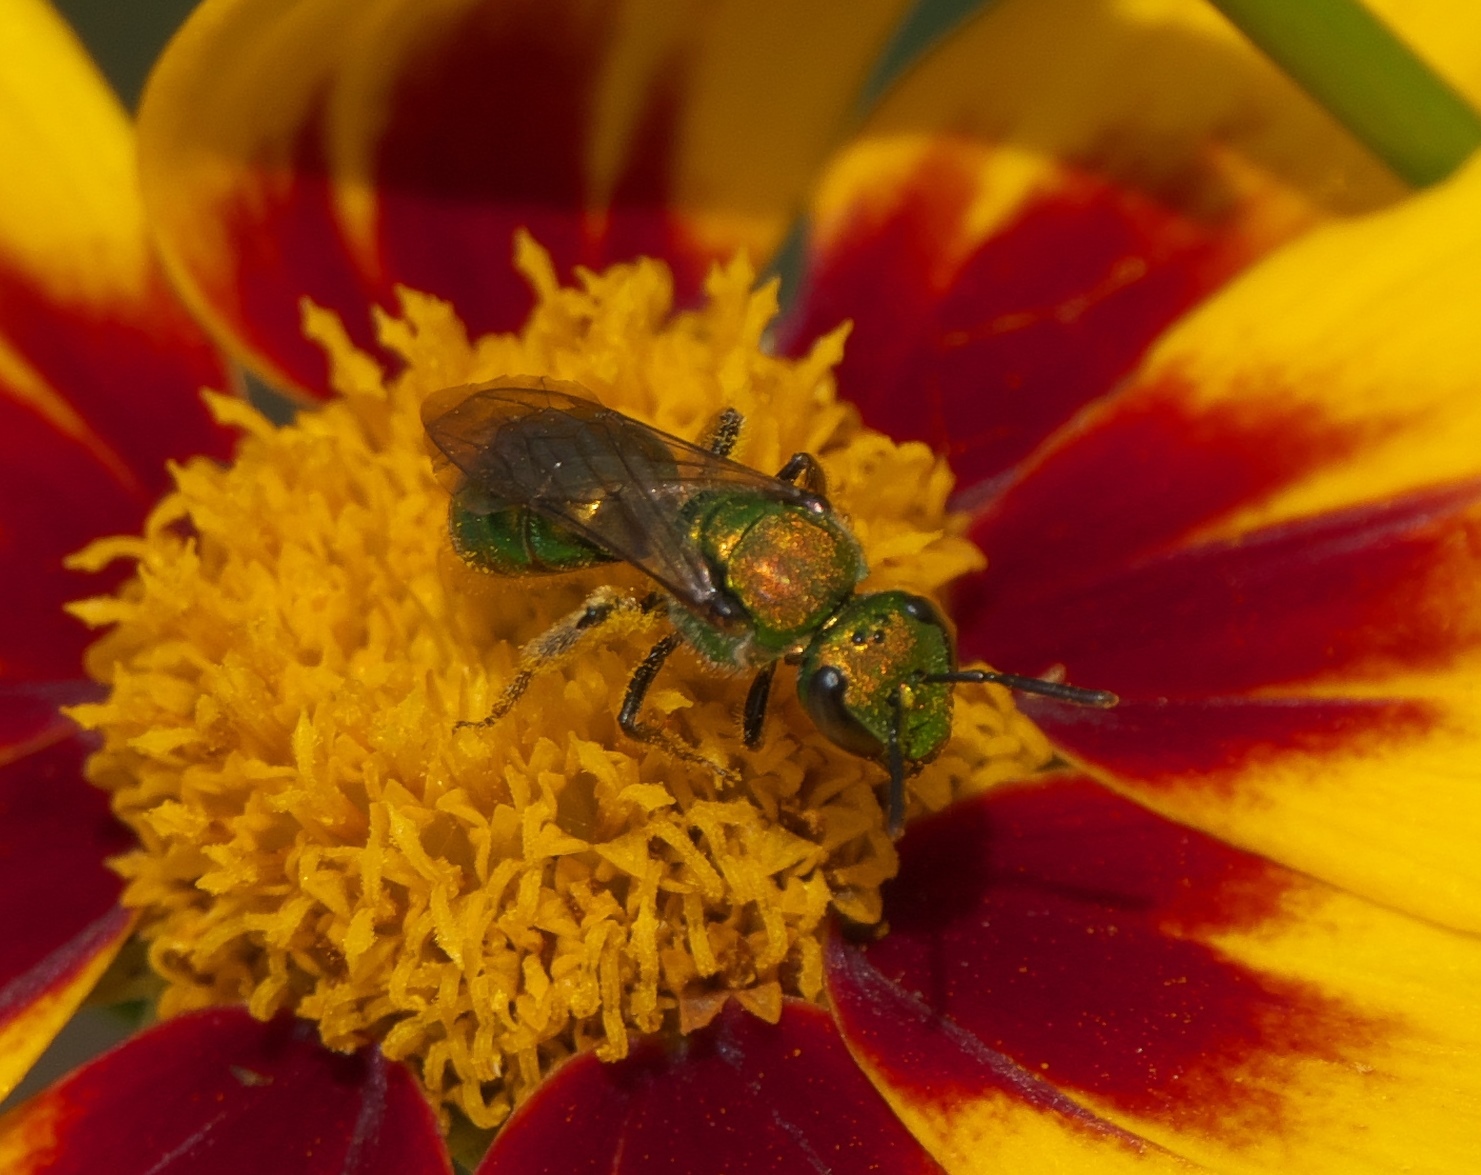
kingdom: Animalia
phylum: Arthropoda
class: Insecta
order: Hymenoptera
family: Halictidae
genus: Augochlora
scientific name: Augochlora pura
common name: Pure green sweat bee
